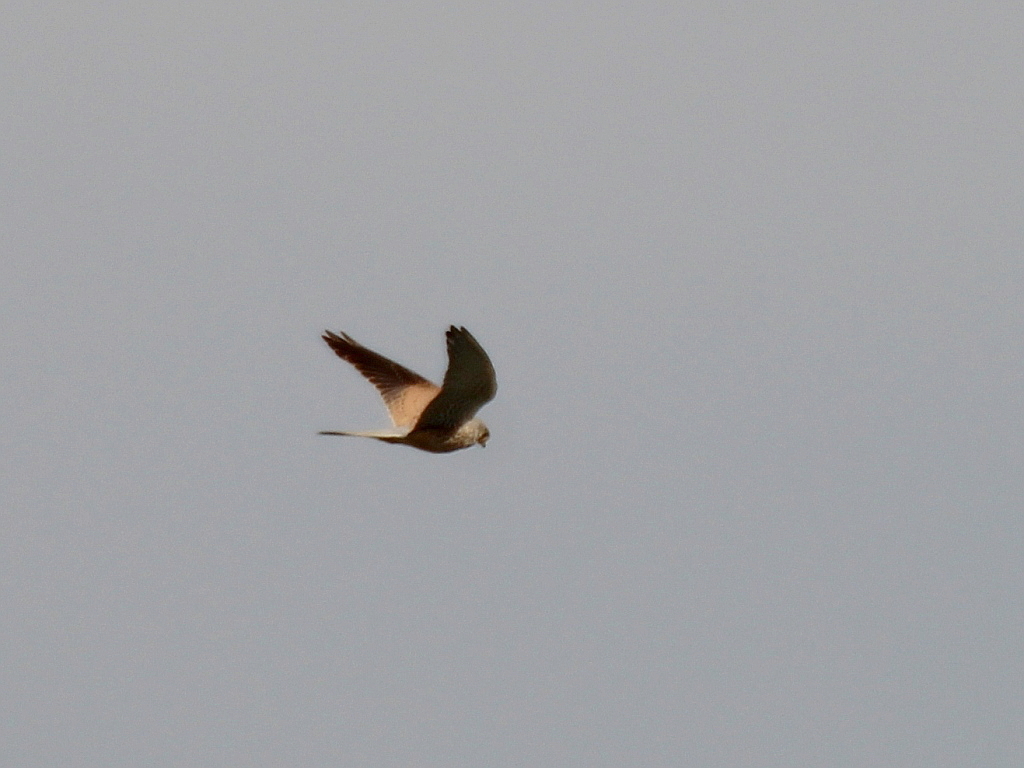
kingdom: Animalia
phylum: Chordata
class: Aves
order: Falconiformes
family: Falconidae
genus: Falco
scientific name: Falco tinnunculus
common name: Common kestrel
